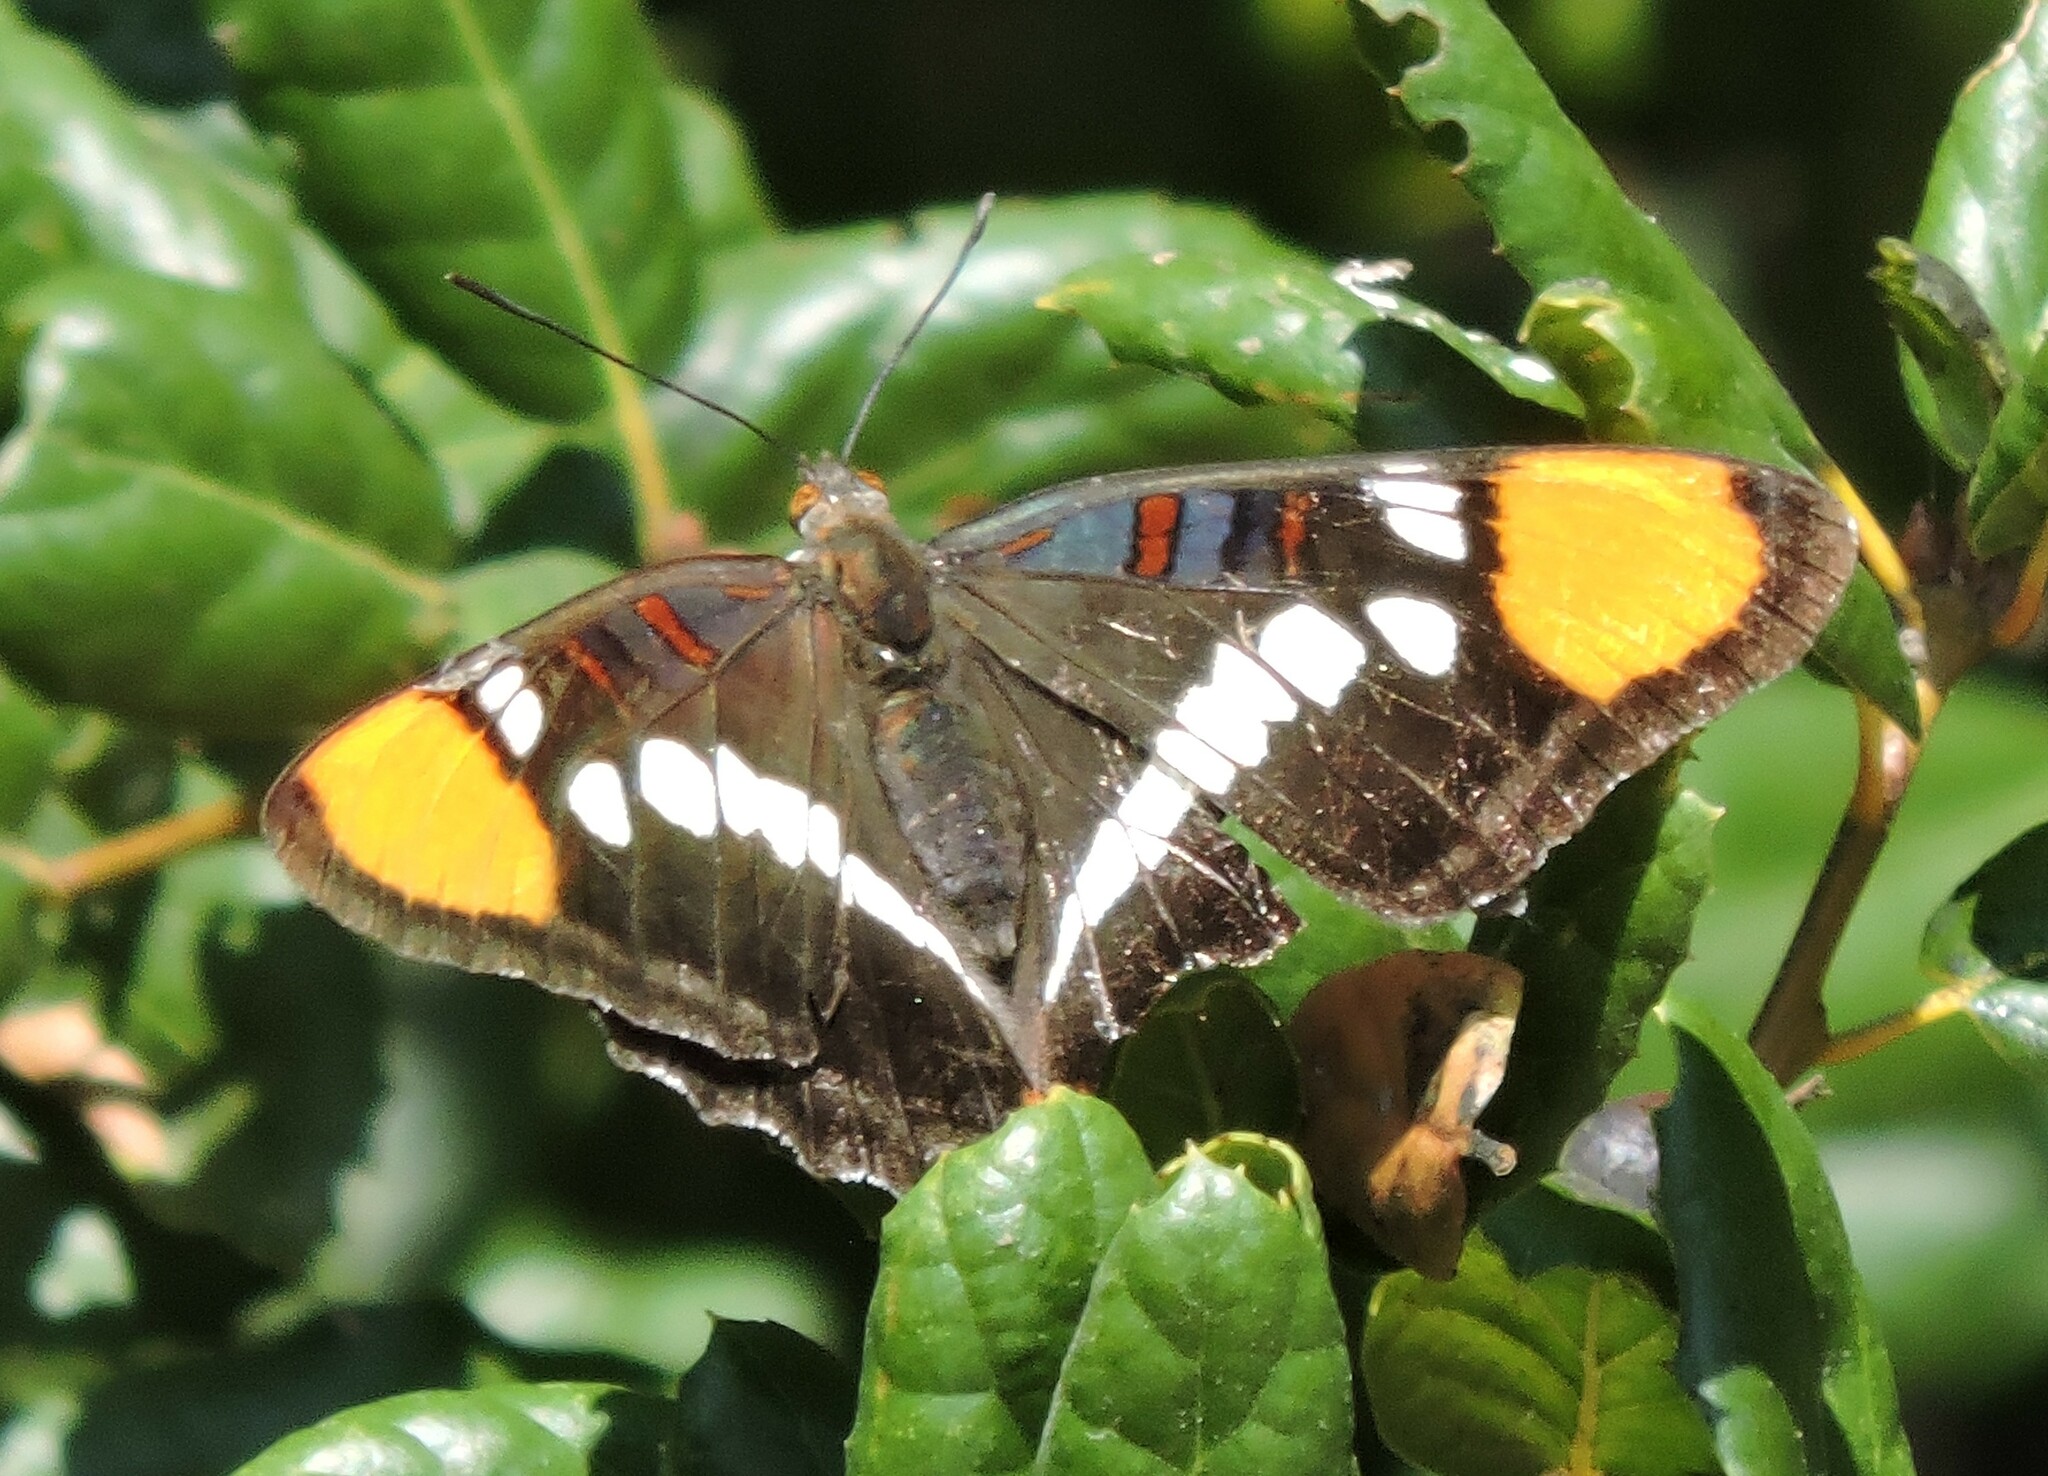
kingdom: Animalia
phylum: Arthropoda
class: Insecta
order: Lepidoptera
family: Nymphalidae
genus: Limenitis
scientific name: Limenitis bredowii
